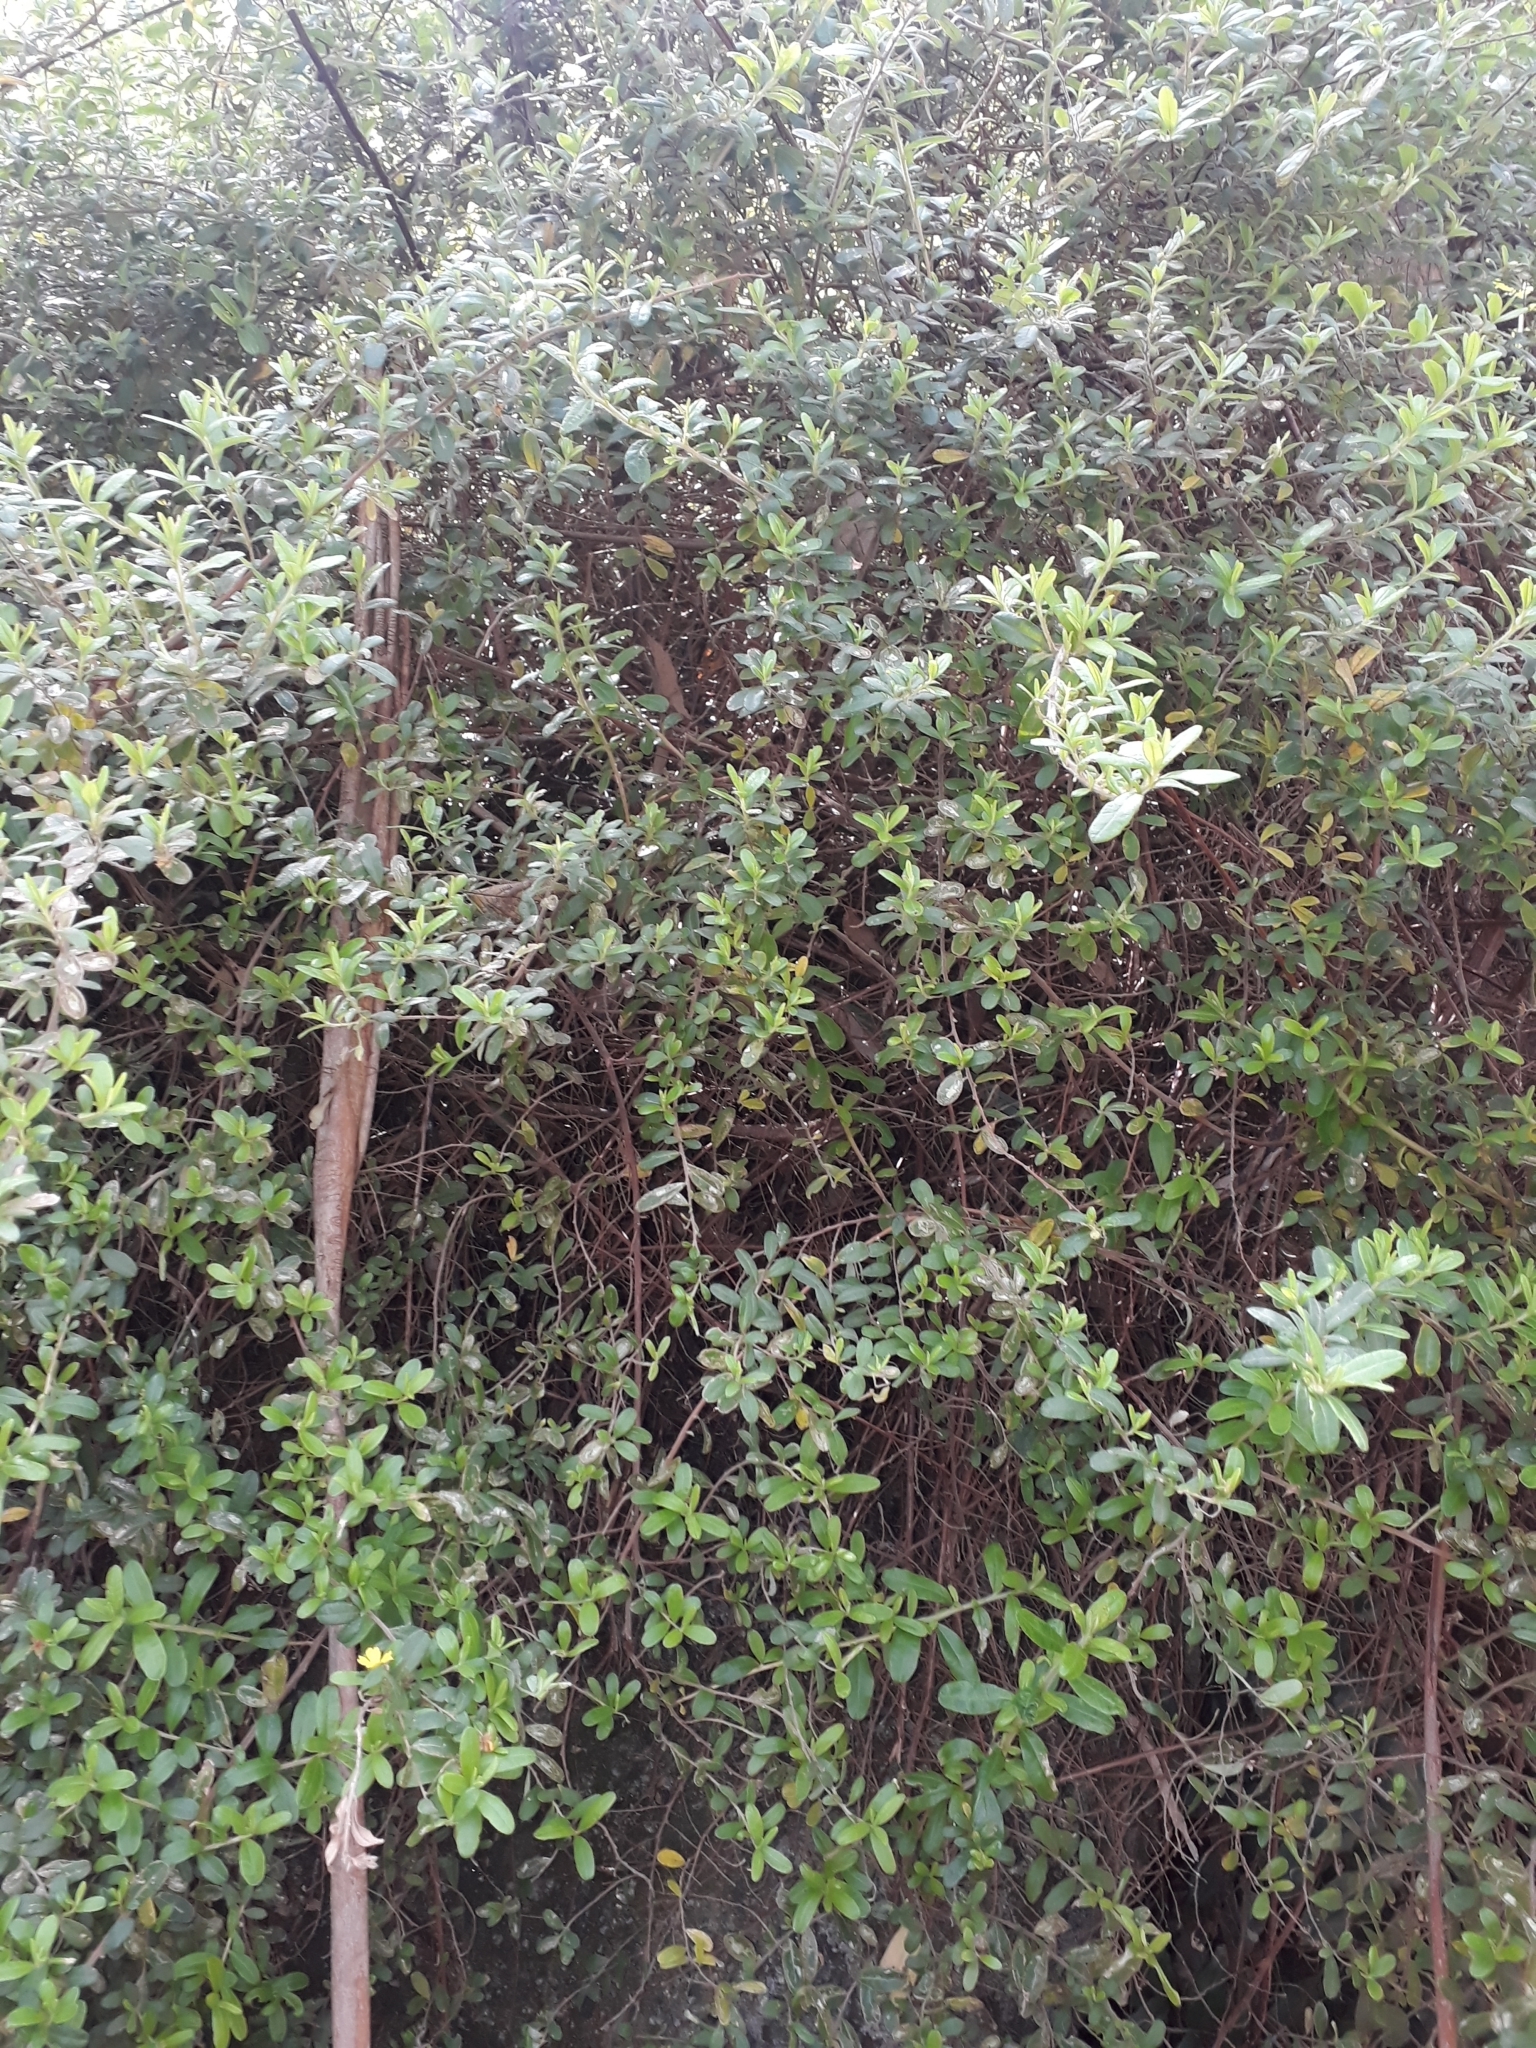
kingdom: Plantae
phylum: Tracheophyta
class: Magnoliopsida
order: Dilleniales
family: Dilleniaceae
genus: Hibbertia
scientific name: Hibbertia hirticalyx
